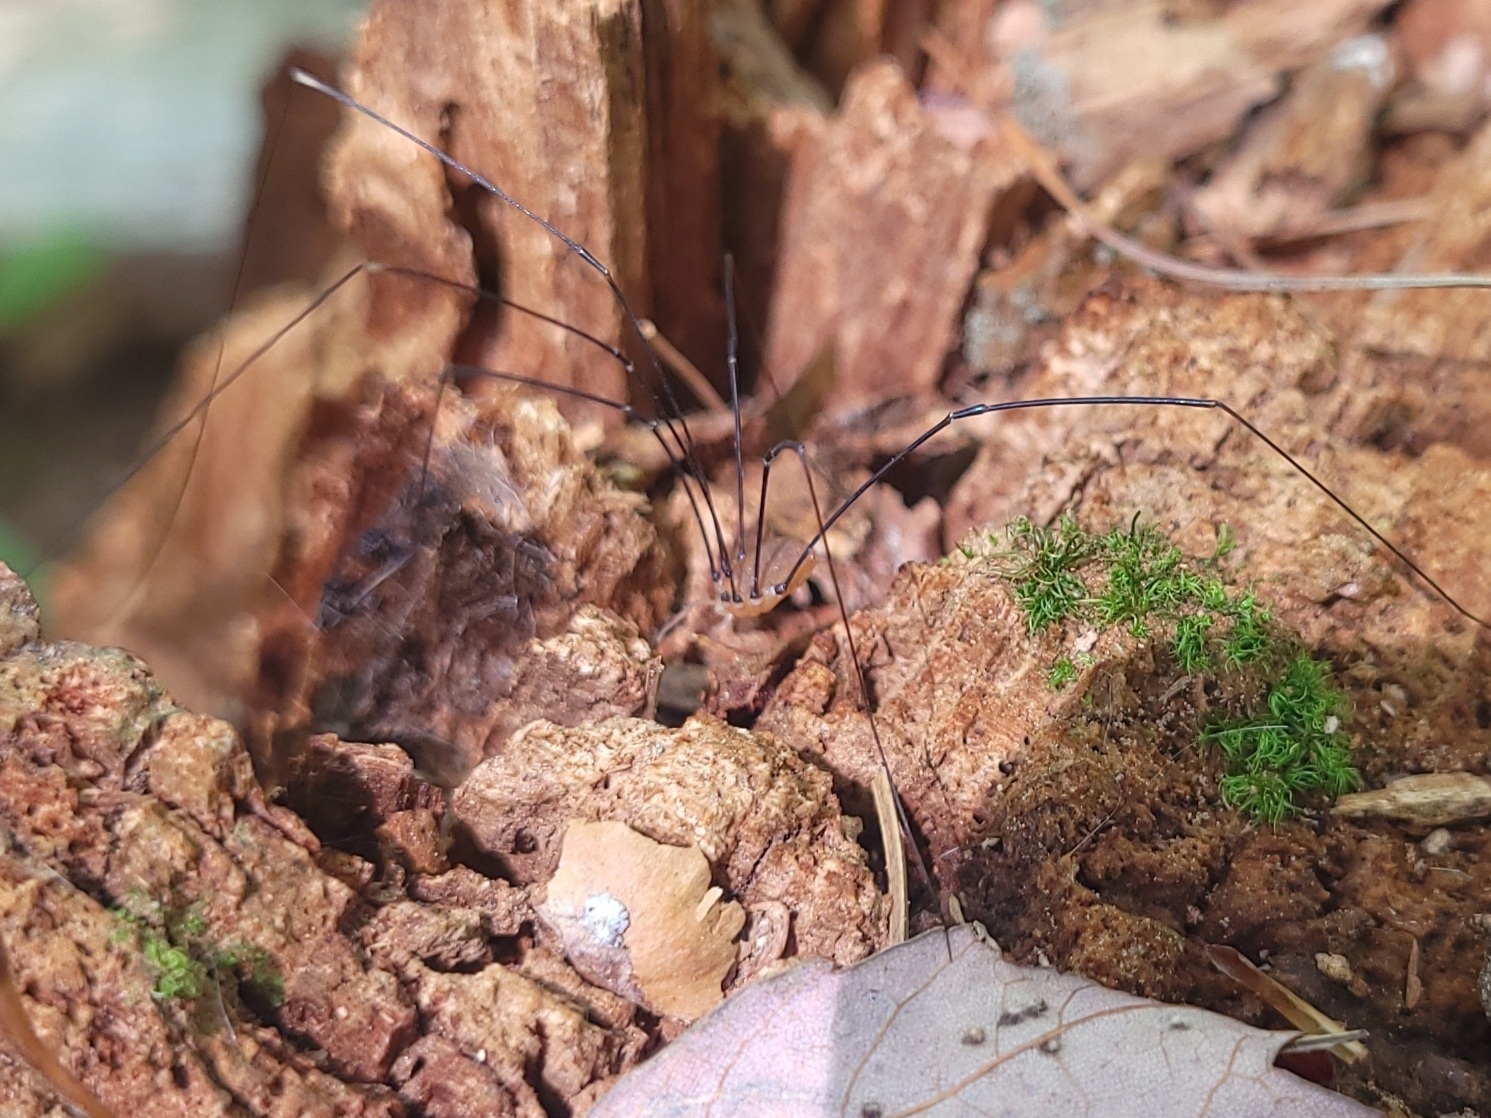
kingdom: Animalia
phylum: Arthropoda
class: Arachnida
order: Opiliones
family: Sclerosomatidae
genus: Leiobunum
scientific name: Leiobunum aldrichi
